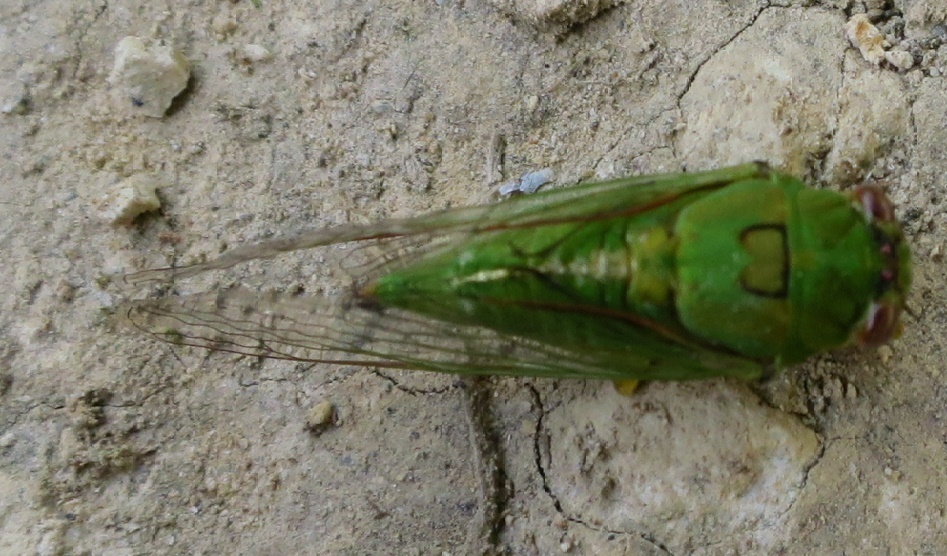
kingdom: Animalia
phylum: Arthropoda
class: Insecta
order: Hemiptera
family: Cicadidae
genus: Kikihia
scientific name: Kikihia ochrina
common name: April green cicada
